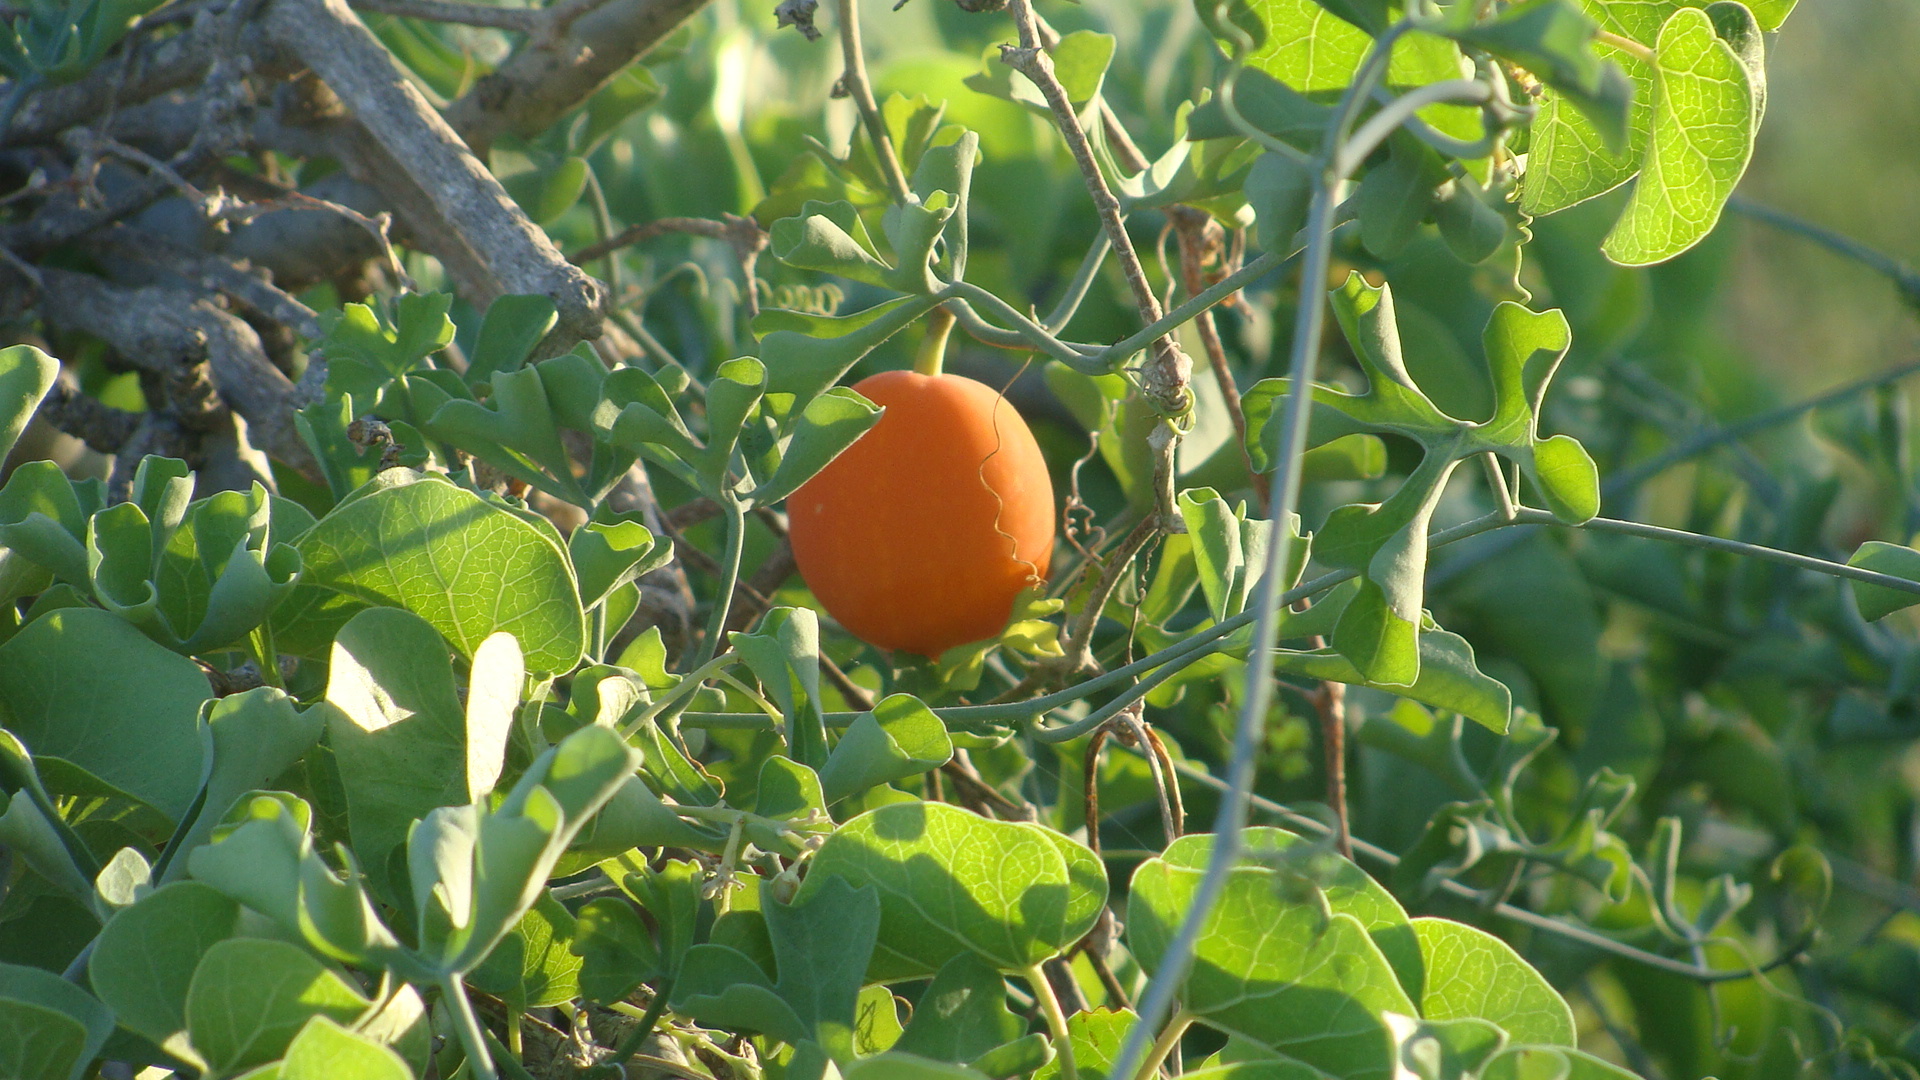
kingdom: Plantae
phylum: Tracheophyta
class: Magnoliopsida
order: Cucurbitales
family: Cucurbitaceae
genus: Ibervillea
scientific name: Ibervillea sonorae
